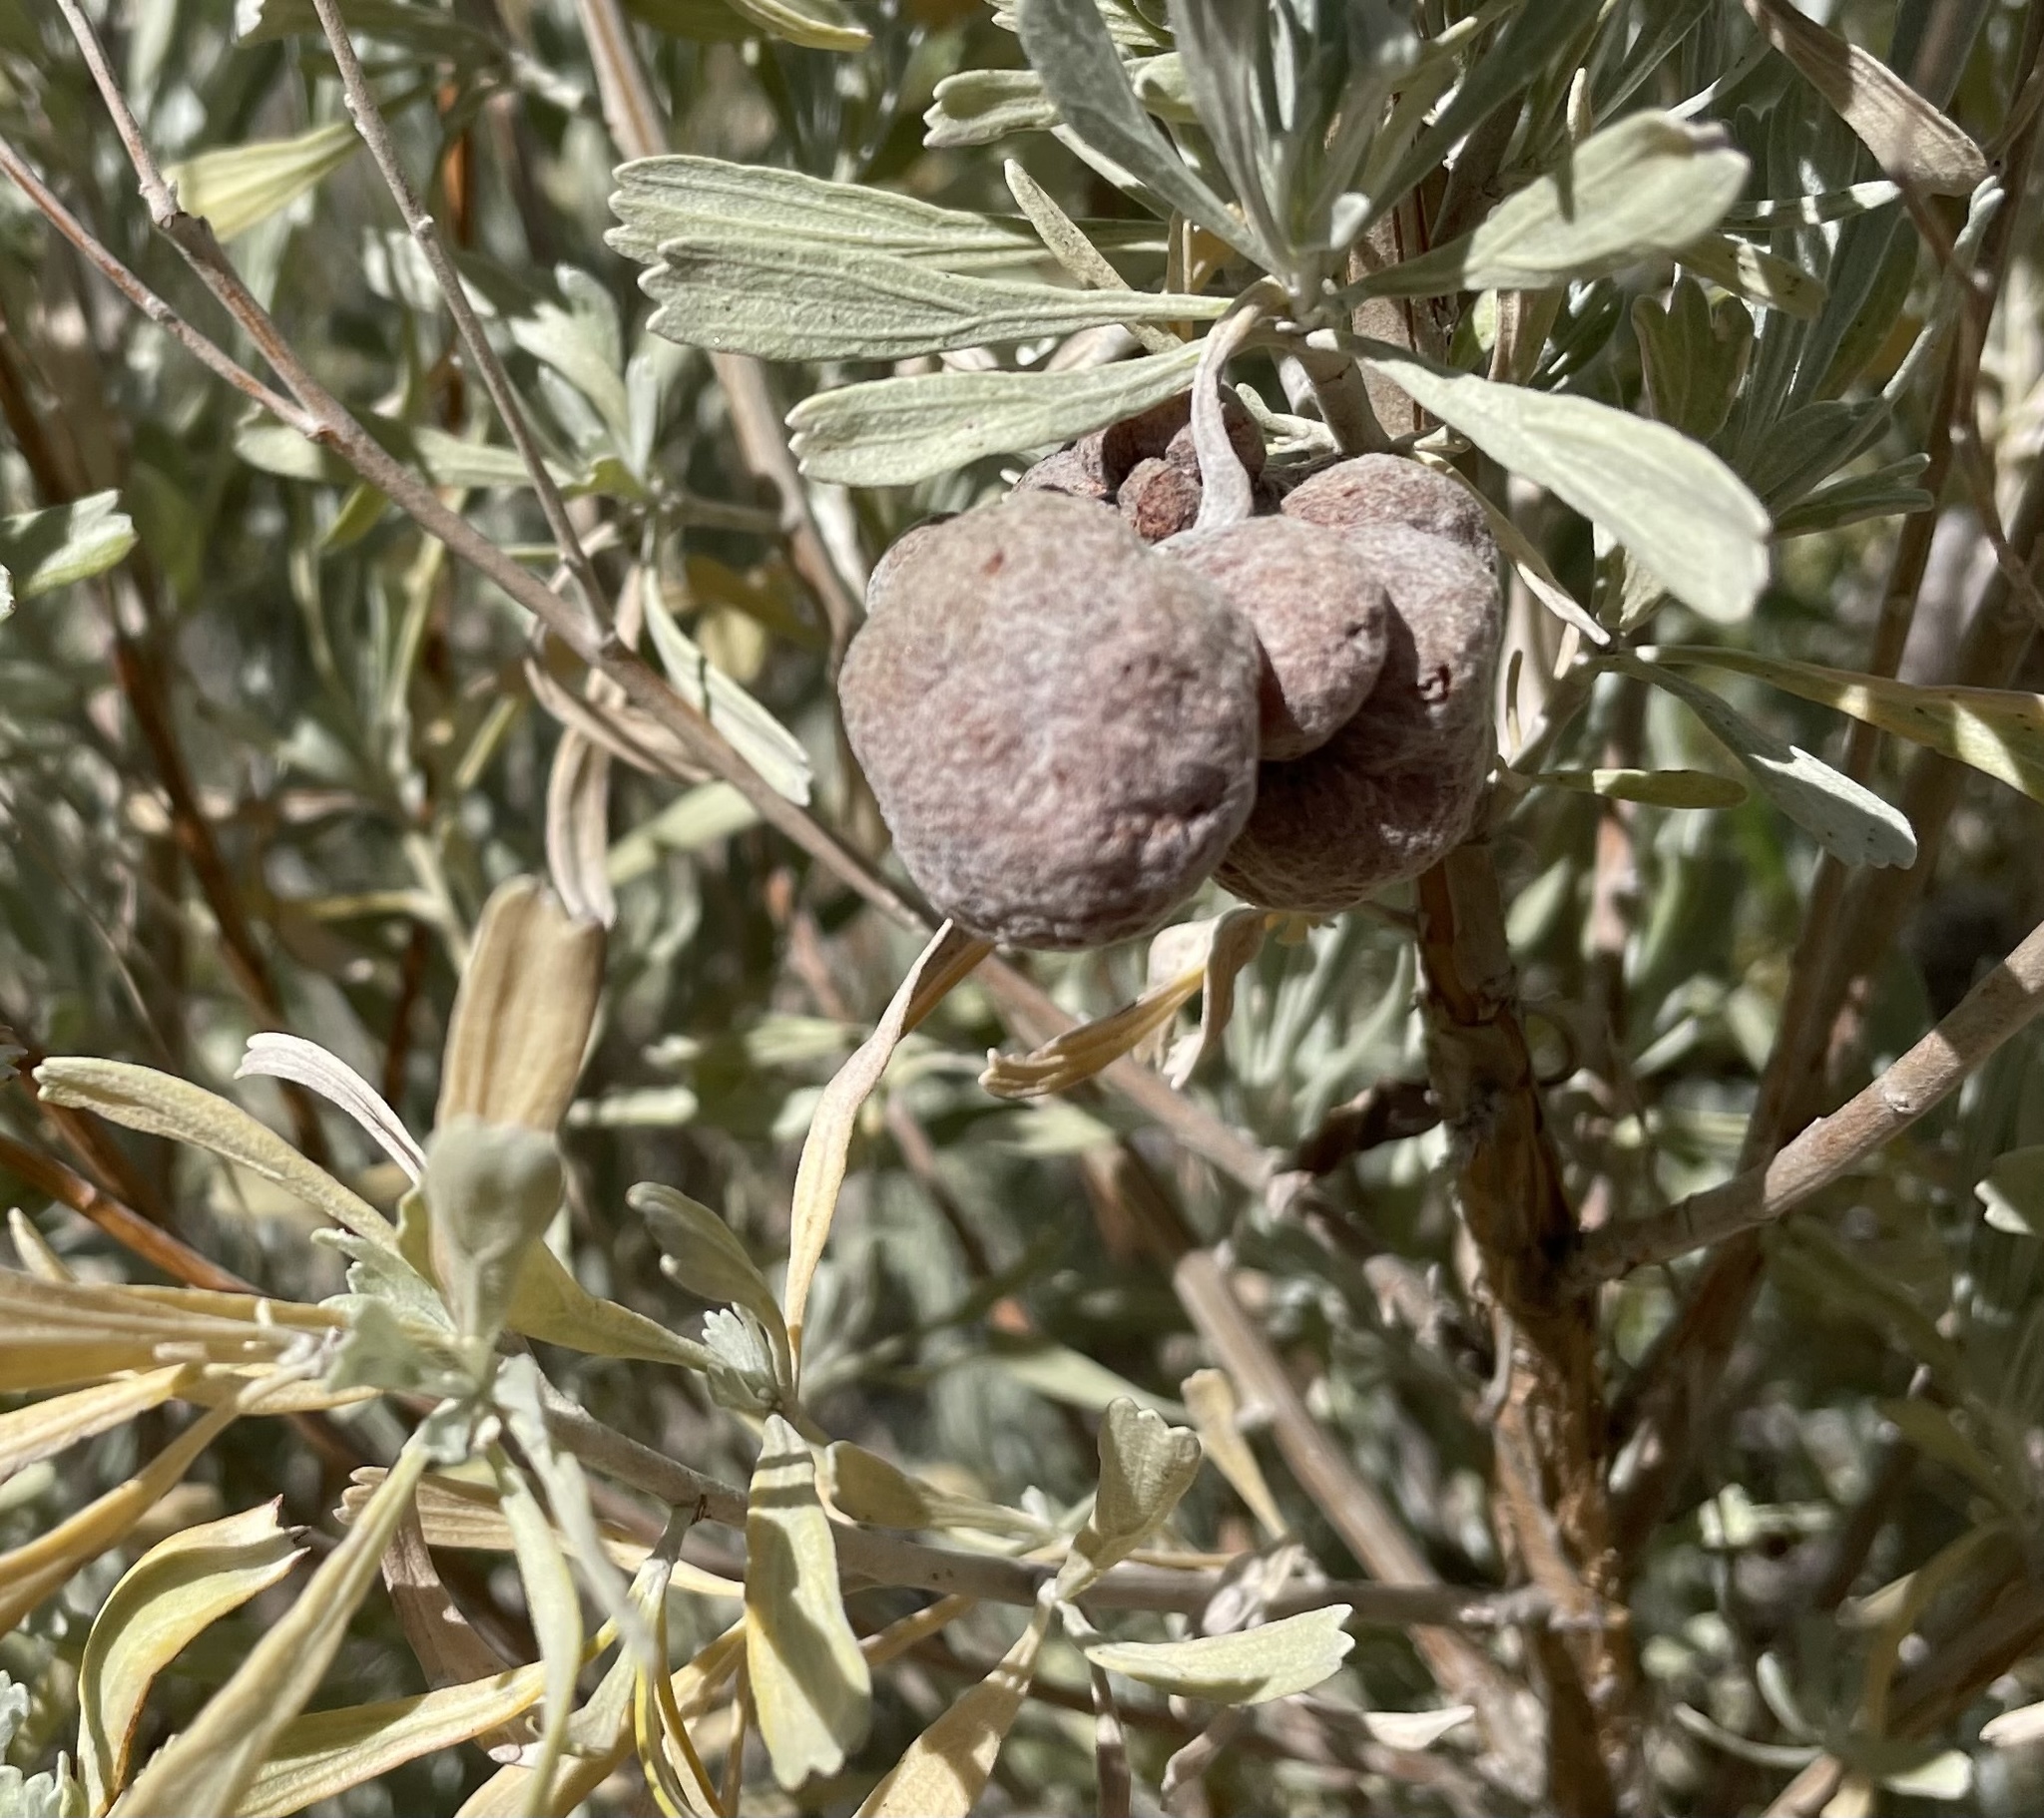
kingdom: Animalia
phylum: Arthropoda
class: Insecta
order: Diptera
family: Cecidomyiidae
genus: Rhopalomyia
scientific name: Rhopalomyia pomum
